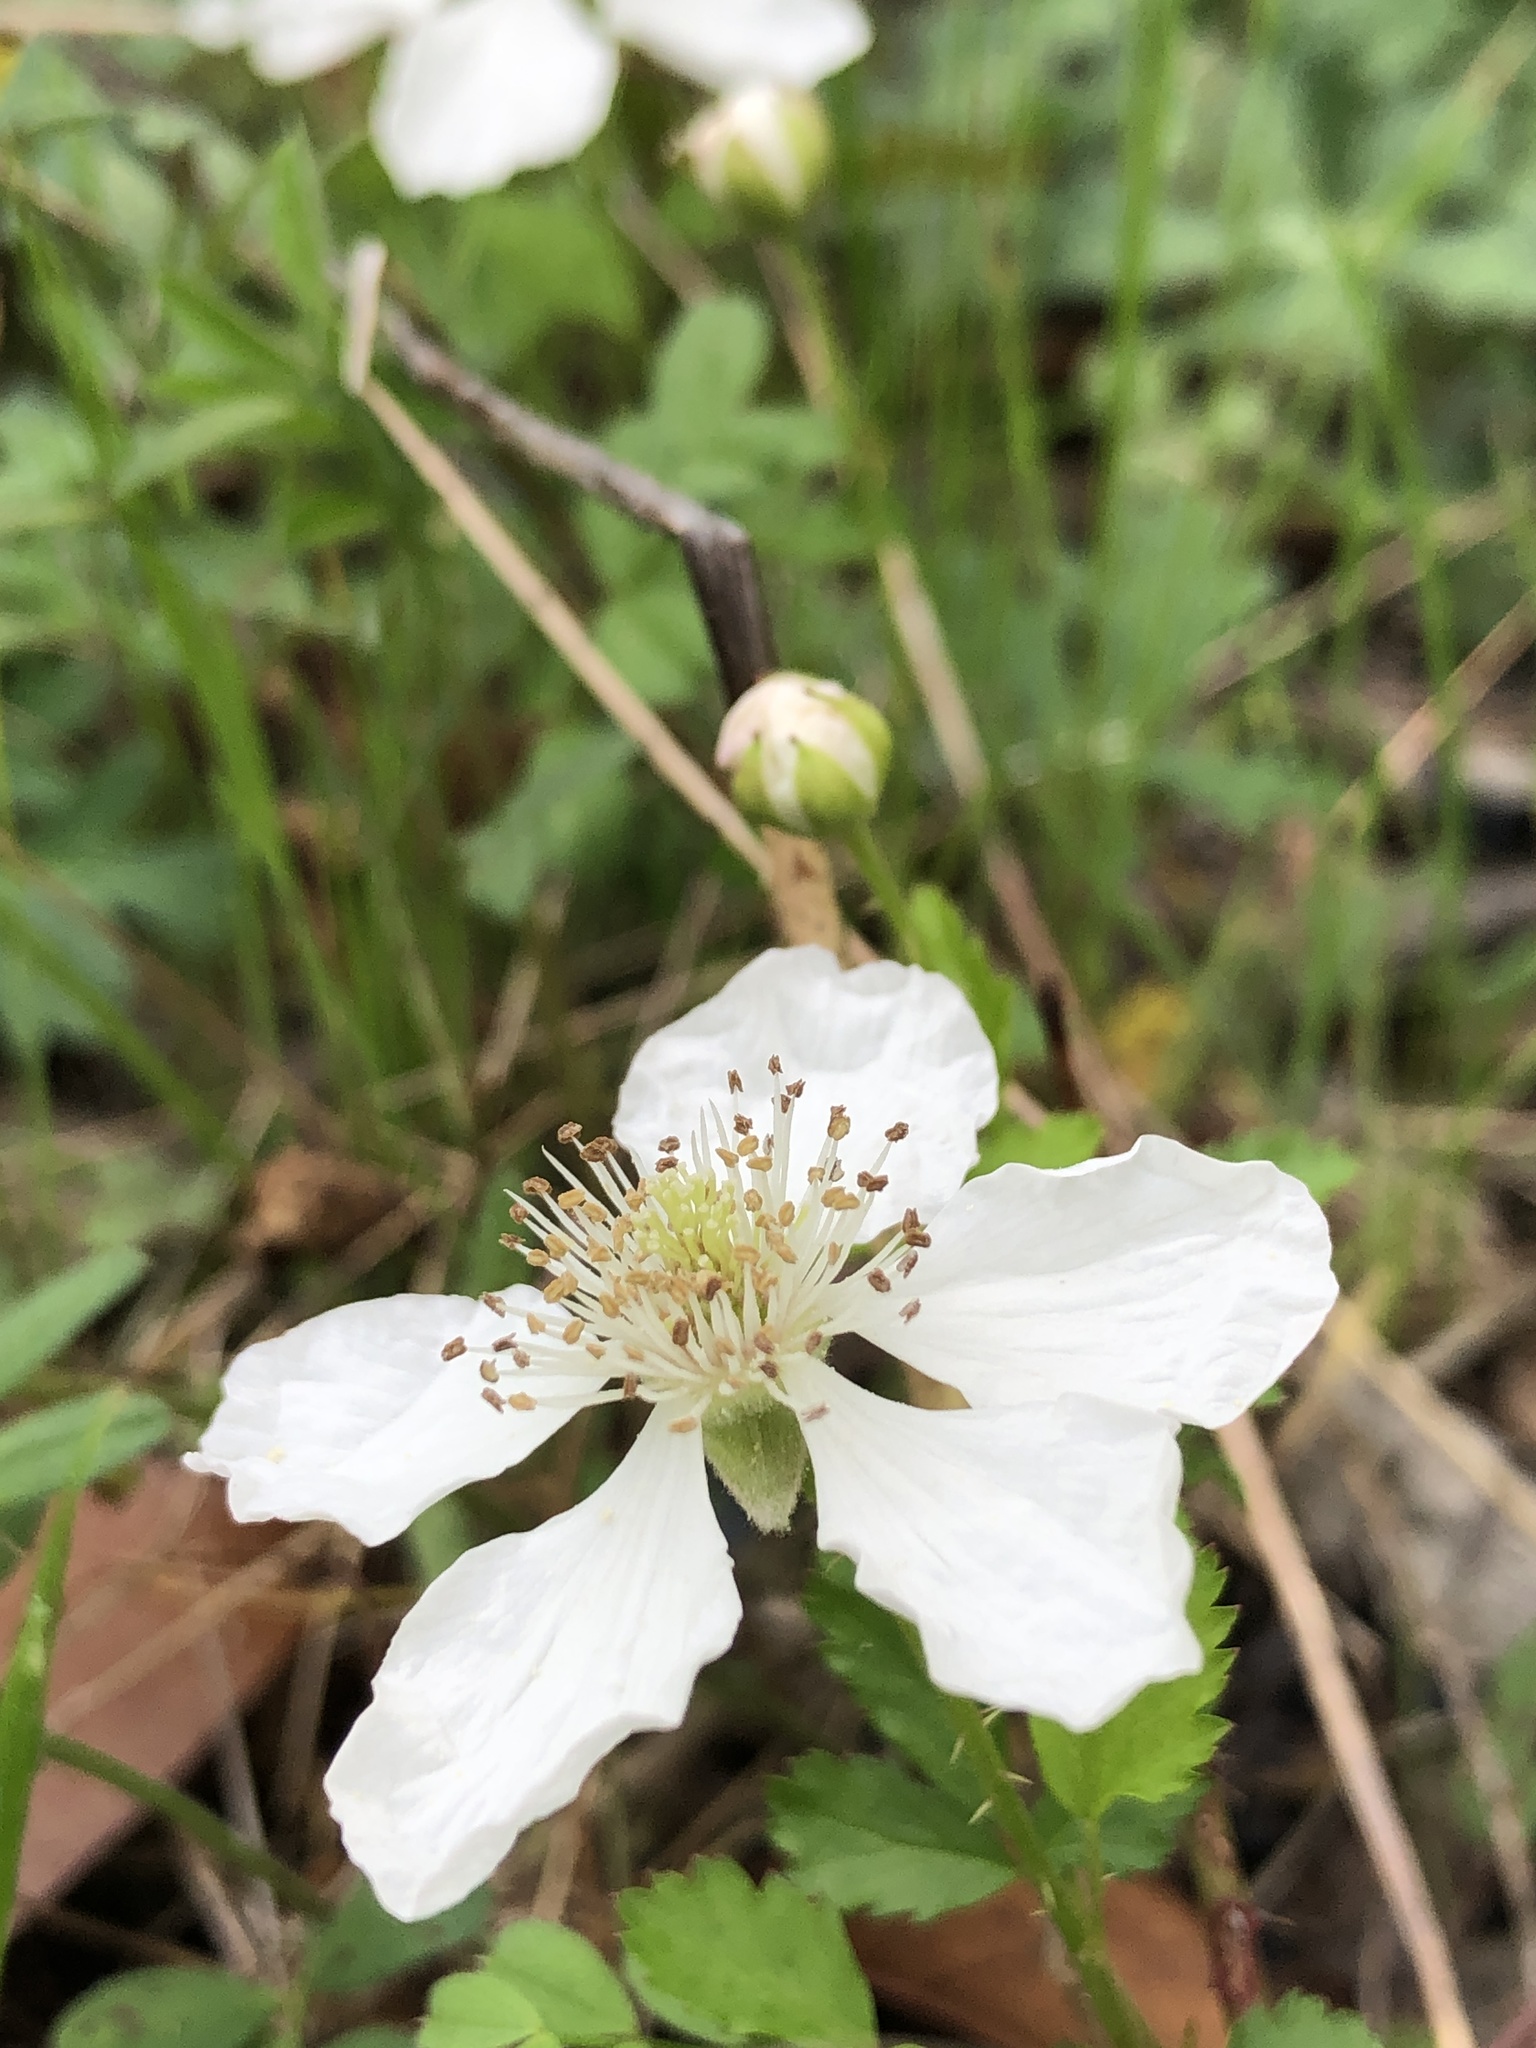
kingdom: Plantae
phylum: Tracheophyta
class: Magnoliopsida
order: Rosales
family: Rosaceae
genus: Rubus
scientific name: Rubus trivialis
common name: Southern dewberry
